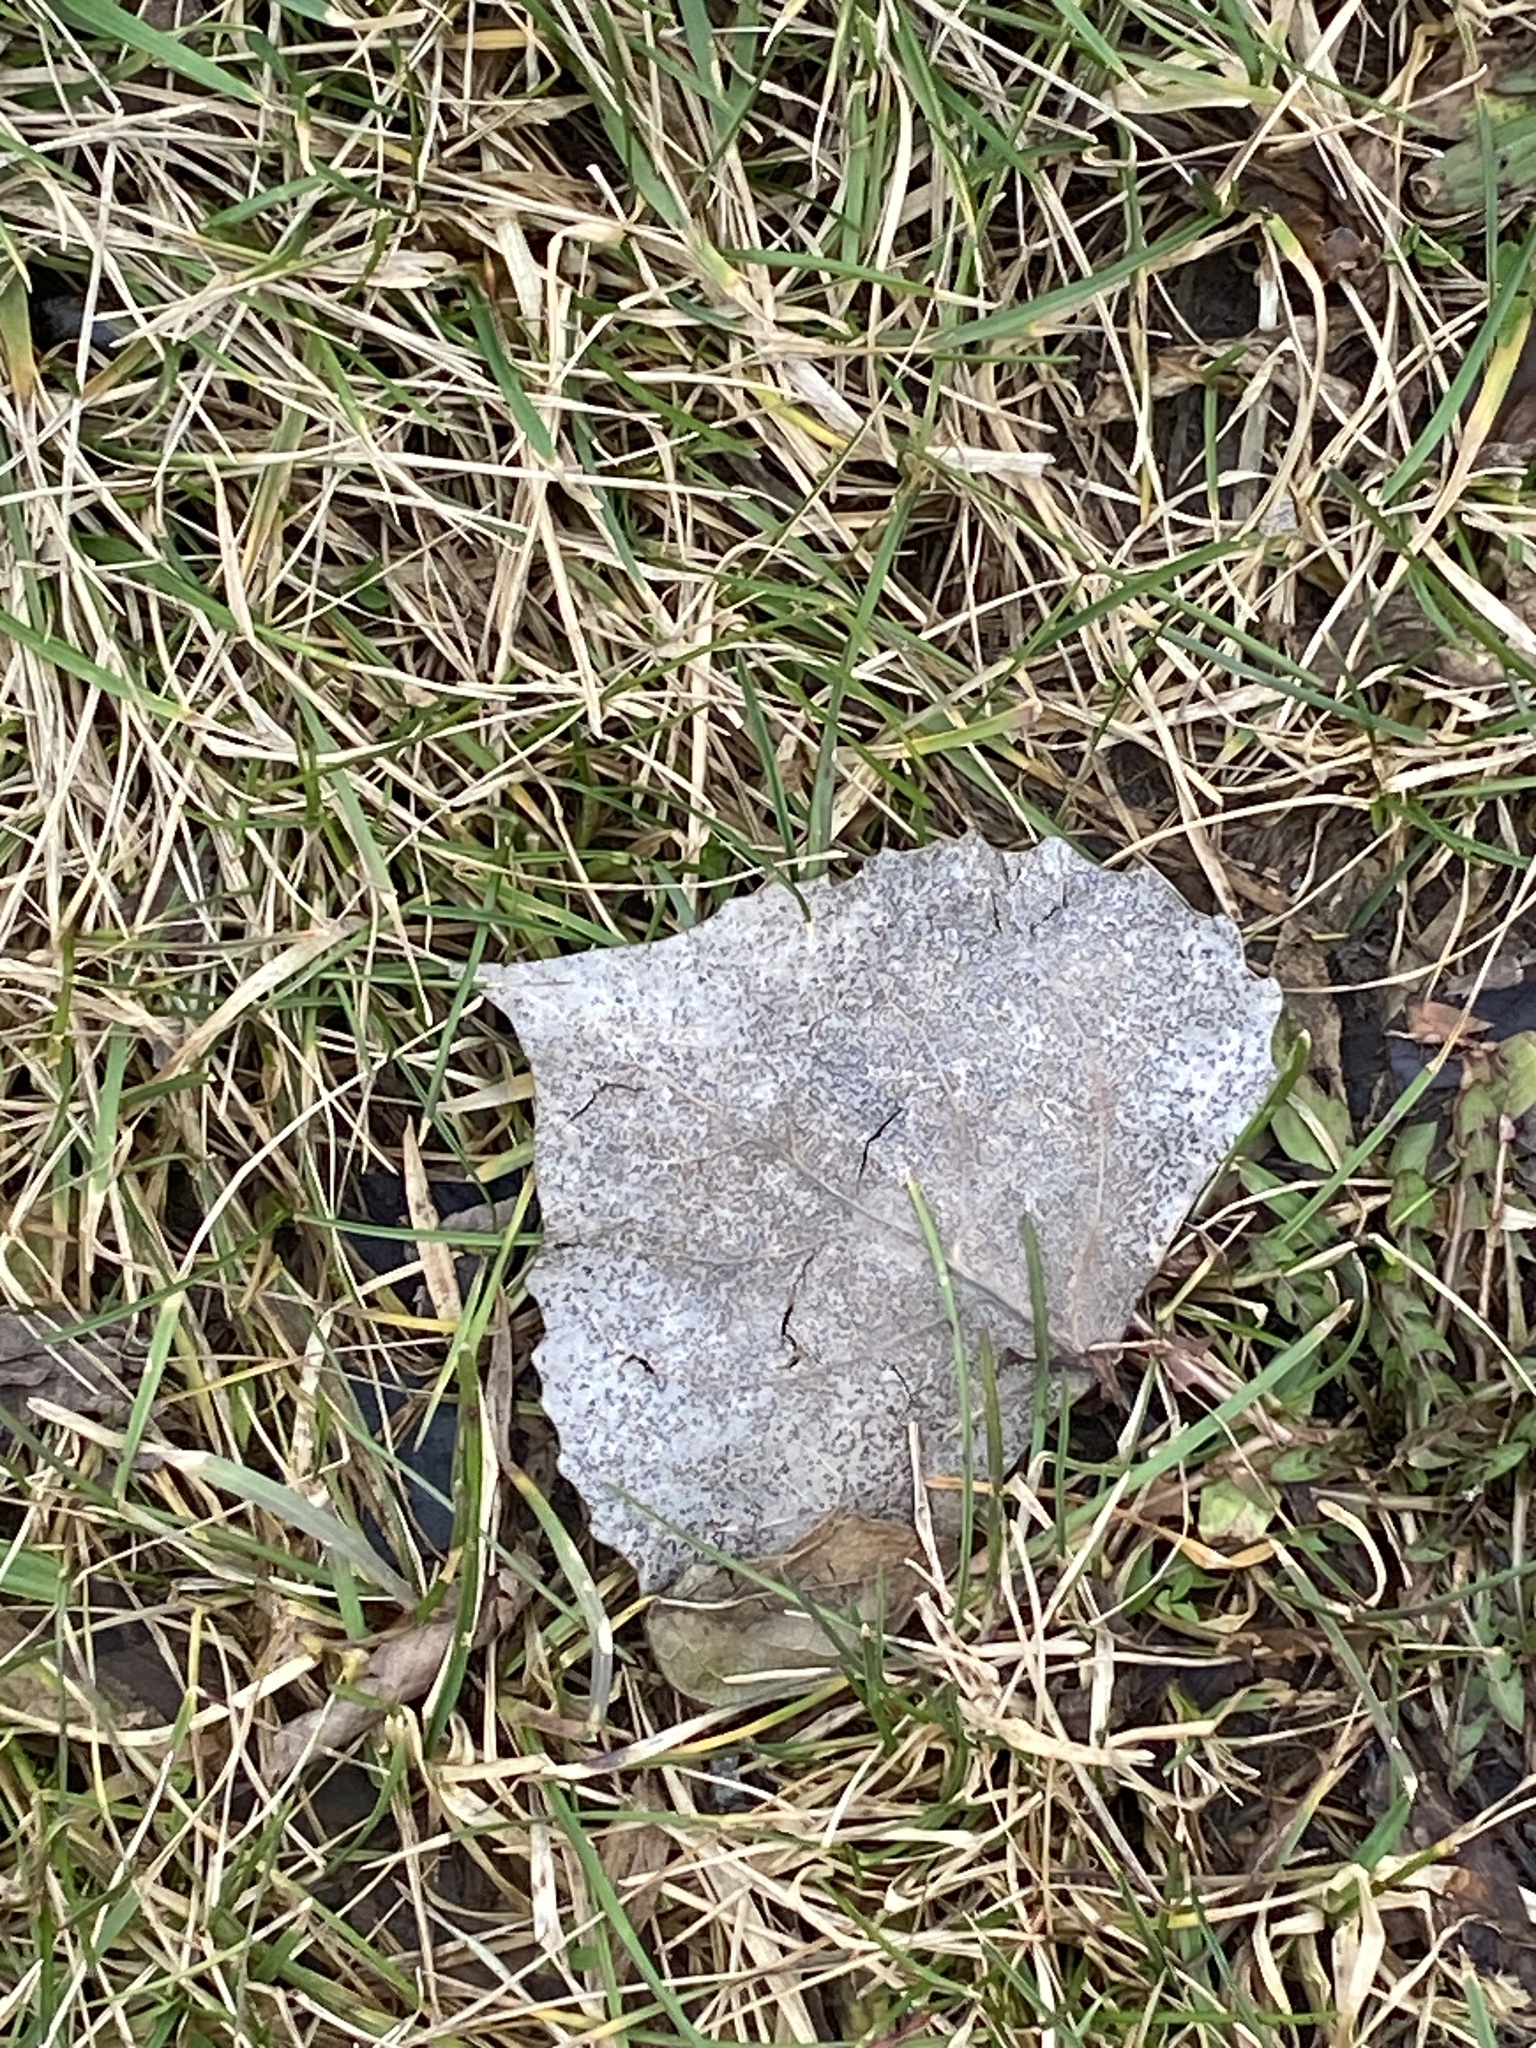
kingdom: Plantae
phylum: Tracheophyta
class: Magnoliopsida
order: Malpighiales
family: Salicaceae
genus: Populus
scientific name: Populus deltoides
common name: Eastern cottonwood
